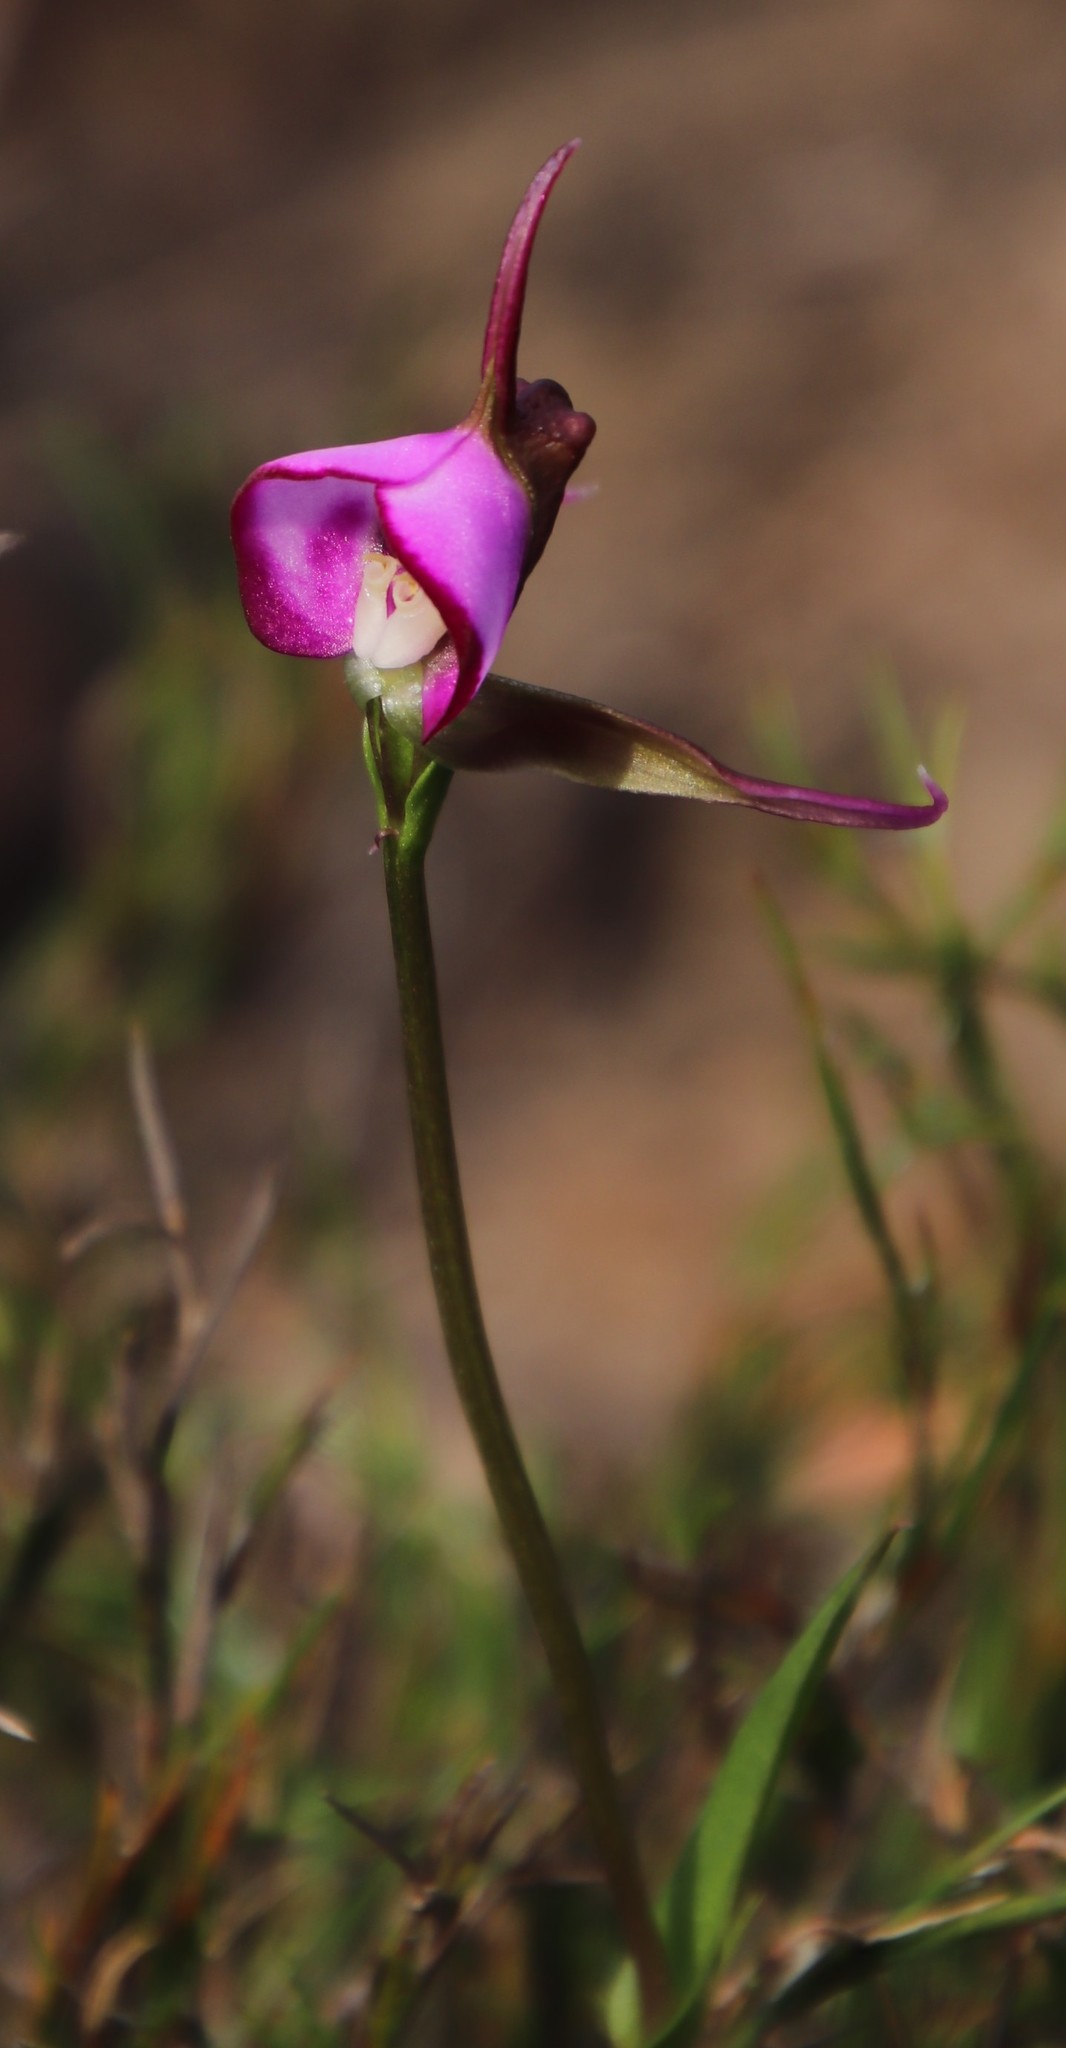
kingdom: Plantae
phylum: Tracheophyta
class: Liliopsida
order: Asparagales
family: Orchidaceae
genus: Disperis
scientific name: Disperis capensis
